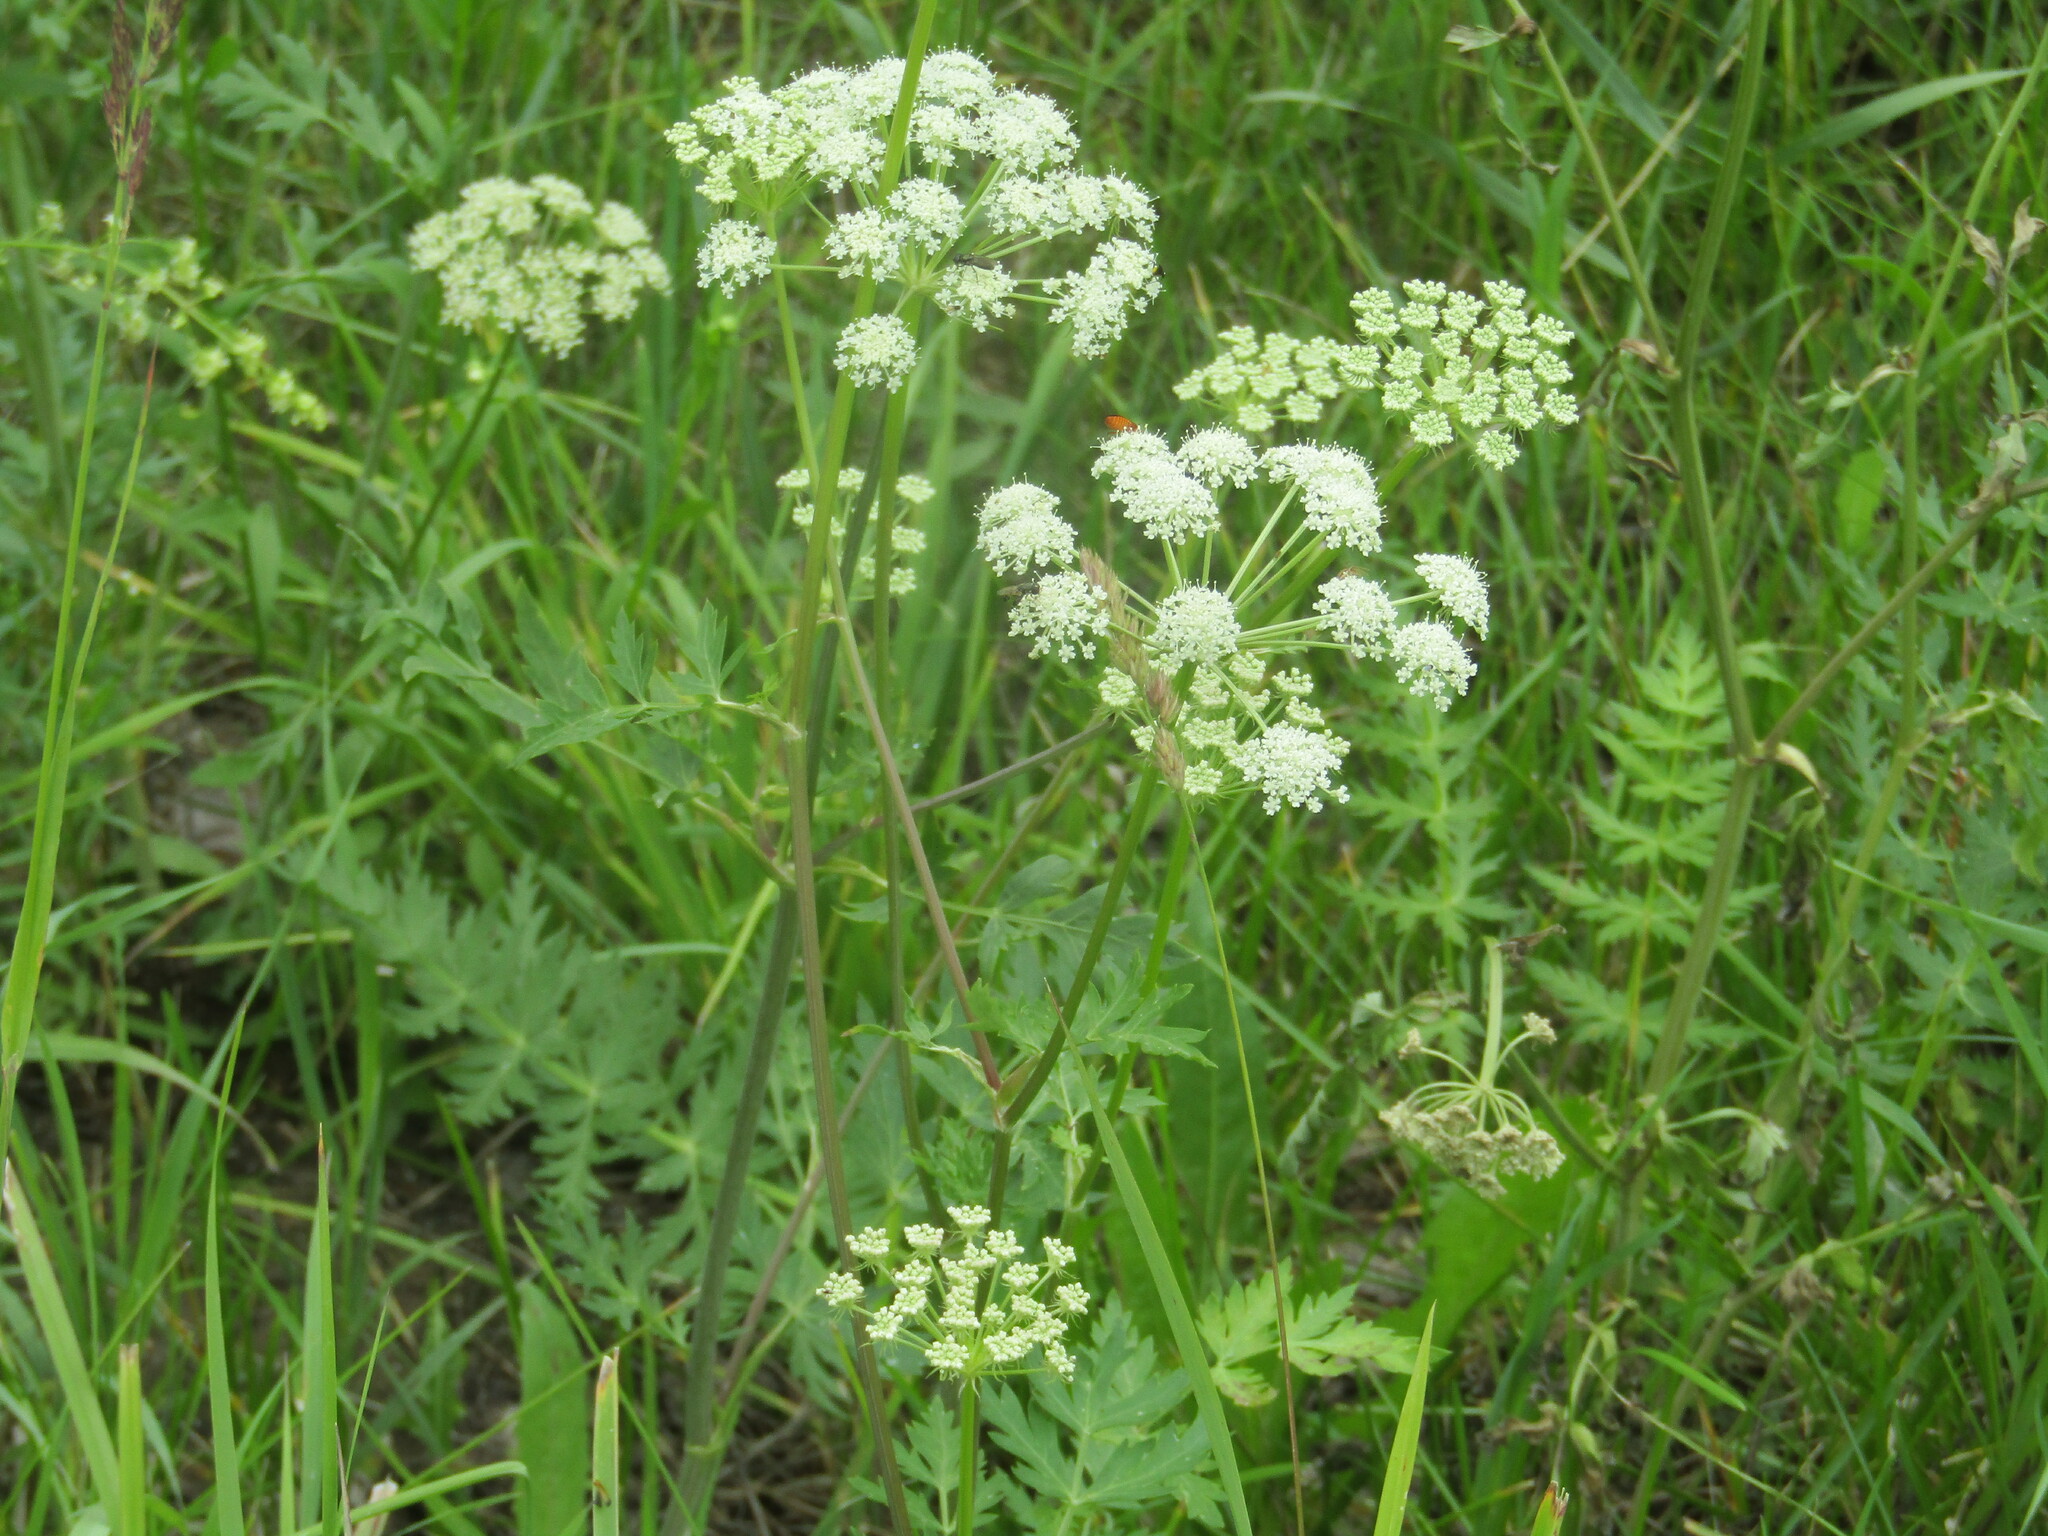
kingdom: Plantae
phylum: Tracheophyta
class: Magnoliopsida
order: Apiales
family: Apiaceae
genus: Seseli
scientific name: Seseli libanotis
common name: Mooncarrot
